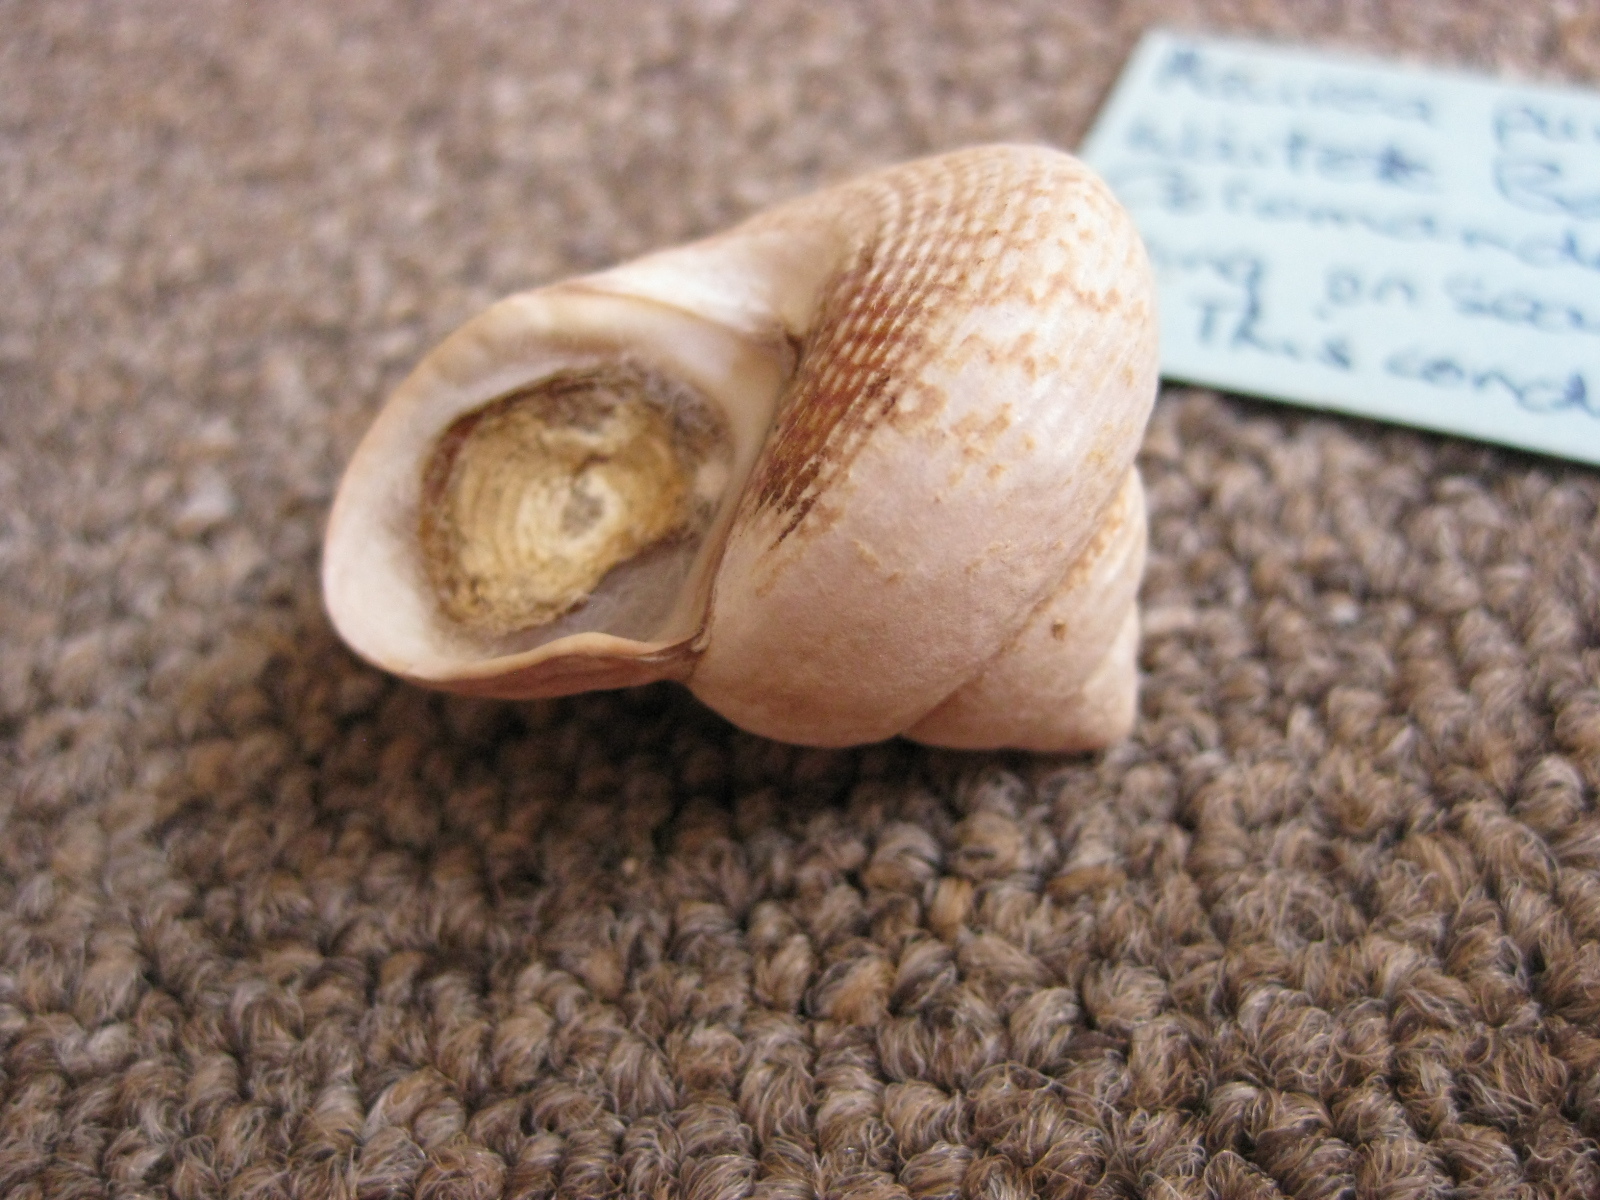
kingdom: Animalia
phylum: Mollusca
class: Gastropoda
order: Trochida
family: Calliostomatidae
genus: Maurea
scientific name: Maurea punctulata
